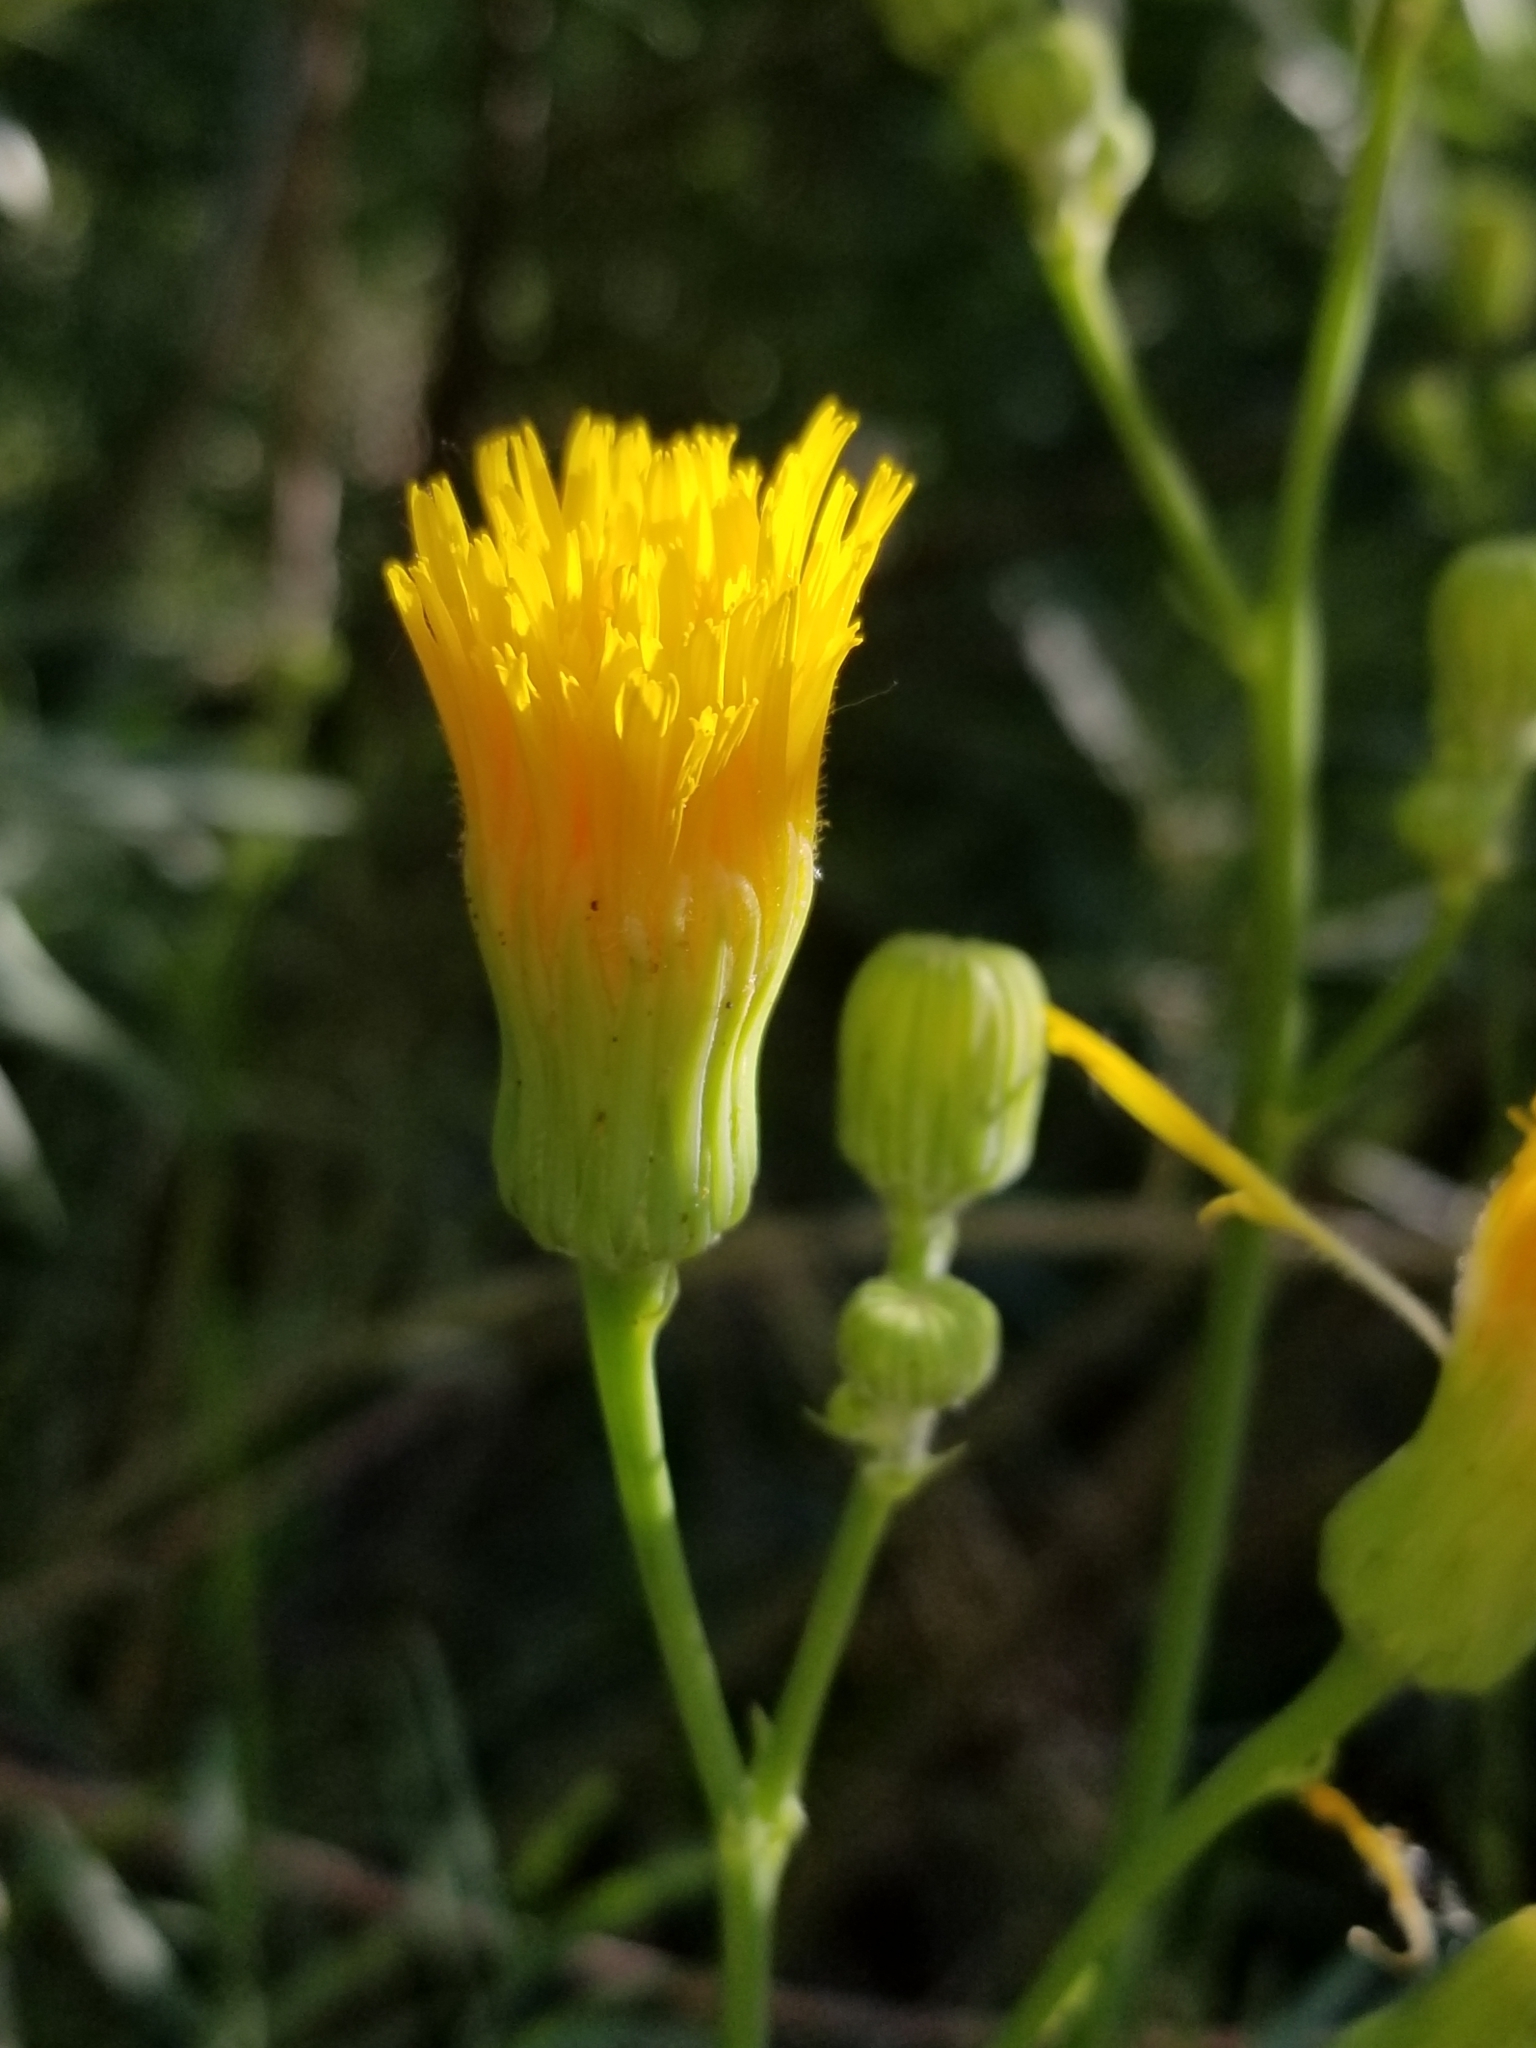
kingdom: Plantae
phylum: Tracheophyta
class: Magnoliopsida
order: Asterales
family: Asteraceae
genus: Sonchus
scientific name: Sonchus arvensis
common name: Perennial sow-thistle
